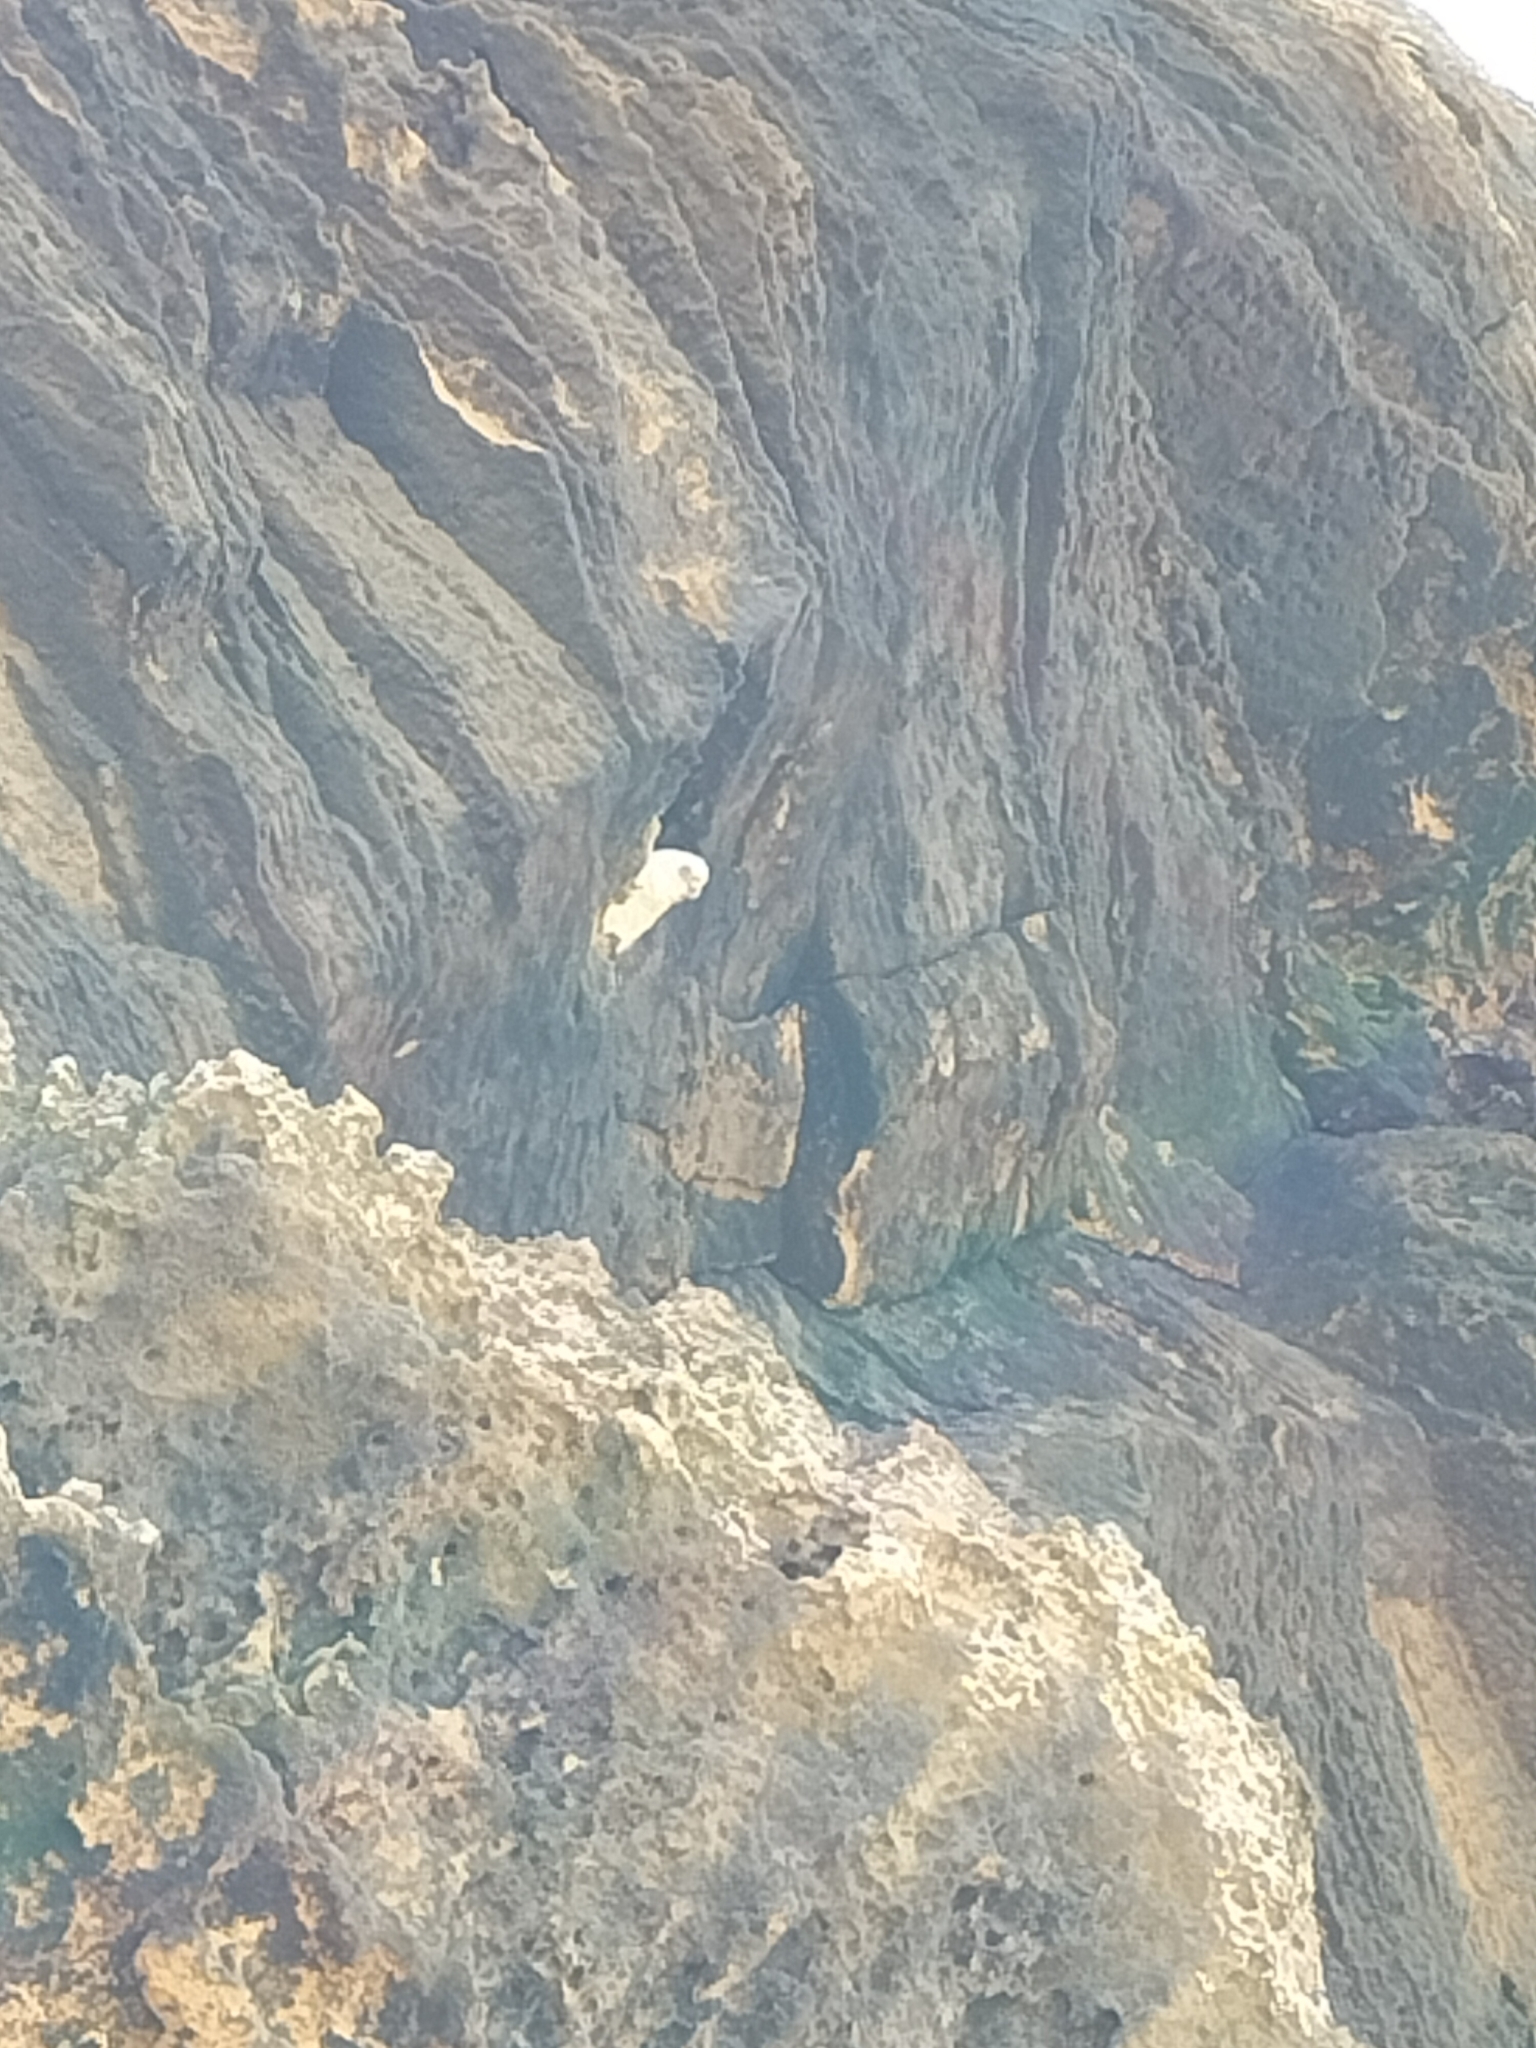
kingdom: Animalia
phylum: Chordata
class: Aves
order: Psittaciformes
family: Psittacidae
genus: Cacatua
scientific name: Cacatua sanguinea
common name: Little corella
